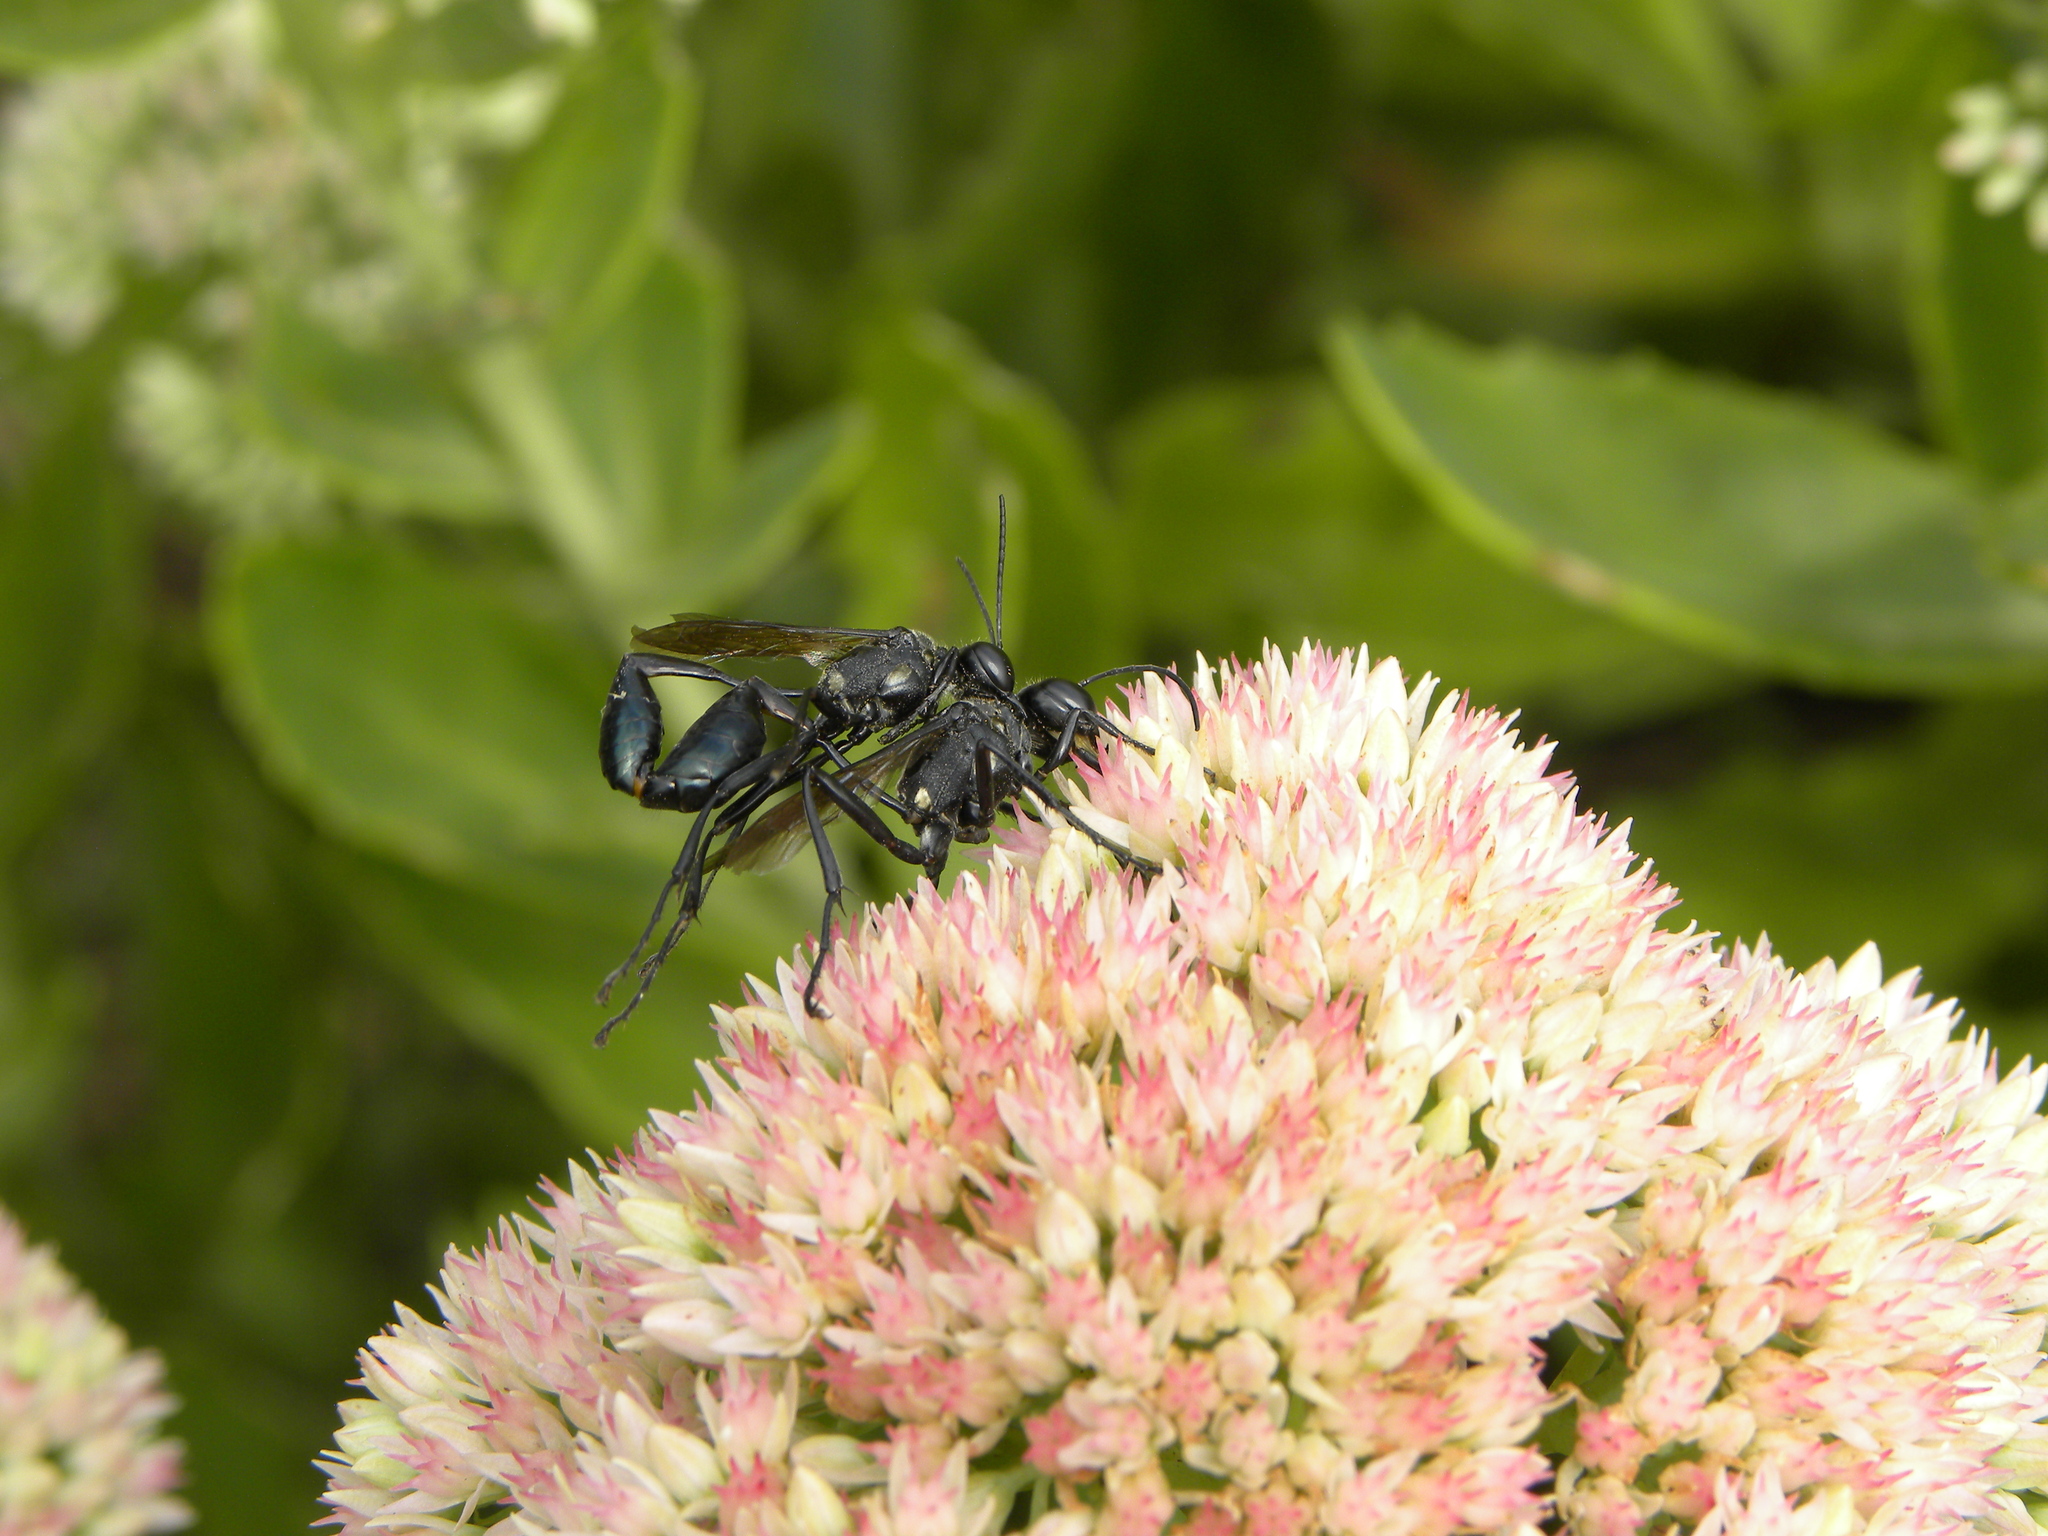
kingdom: Animalia
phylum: Arthropoda
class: Insecta
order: Hymenoptera
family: Sphecidae
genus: Eremnophila
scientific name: Eremnophila aureonotata
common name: Gold-marked thread-waisted wasp
